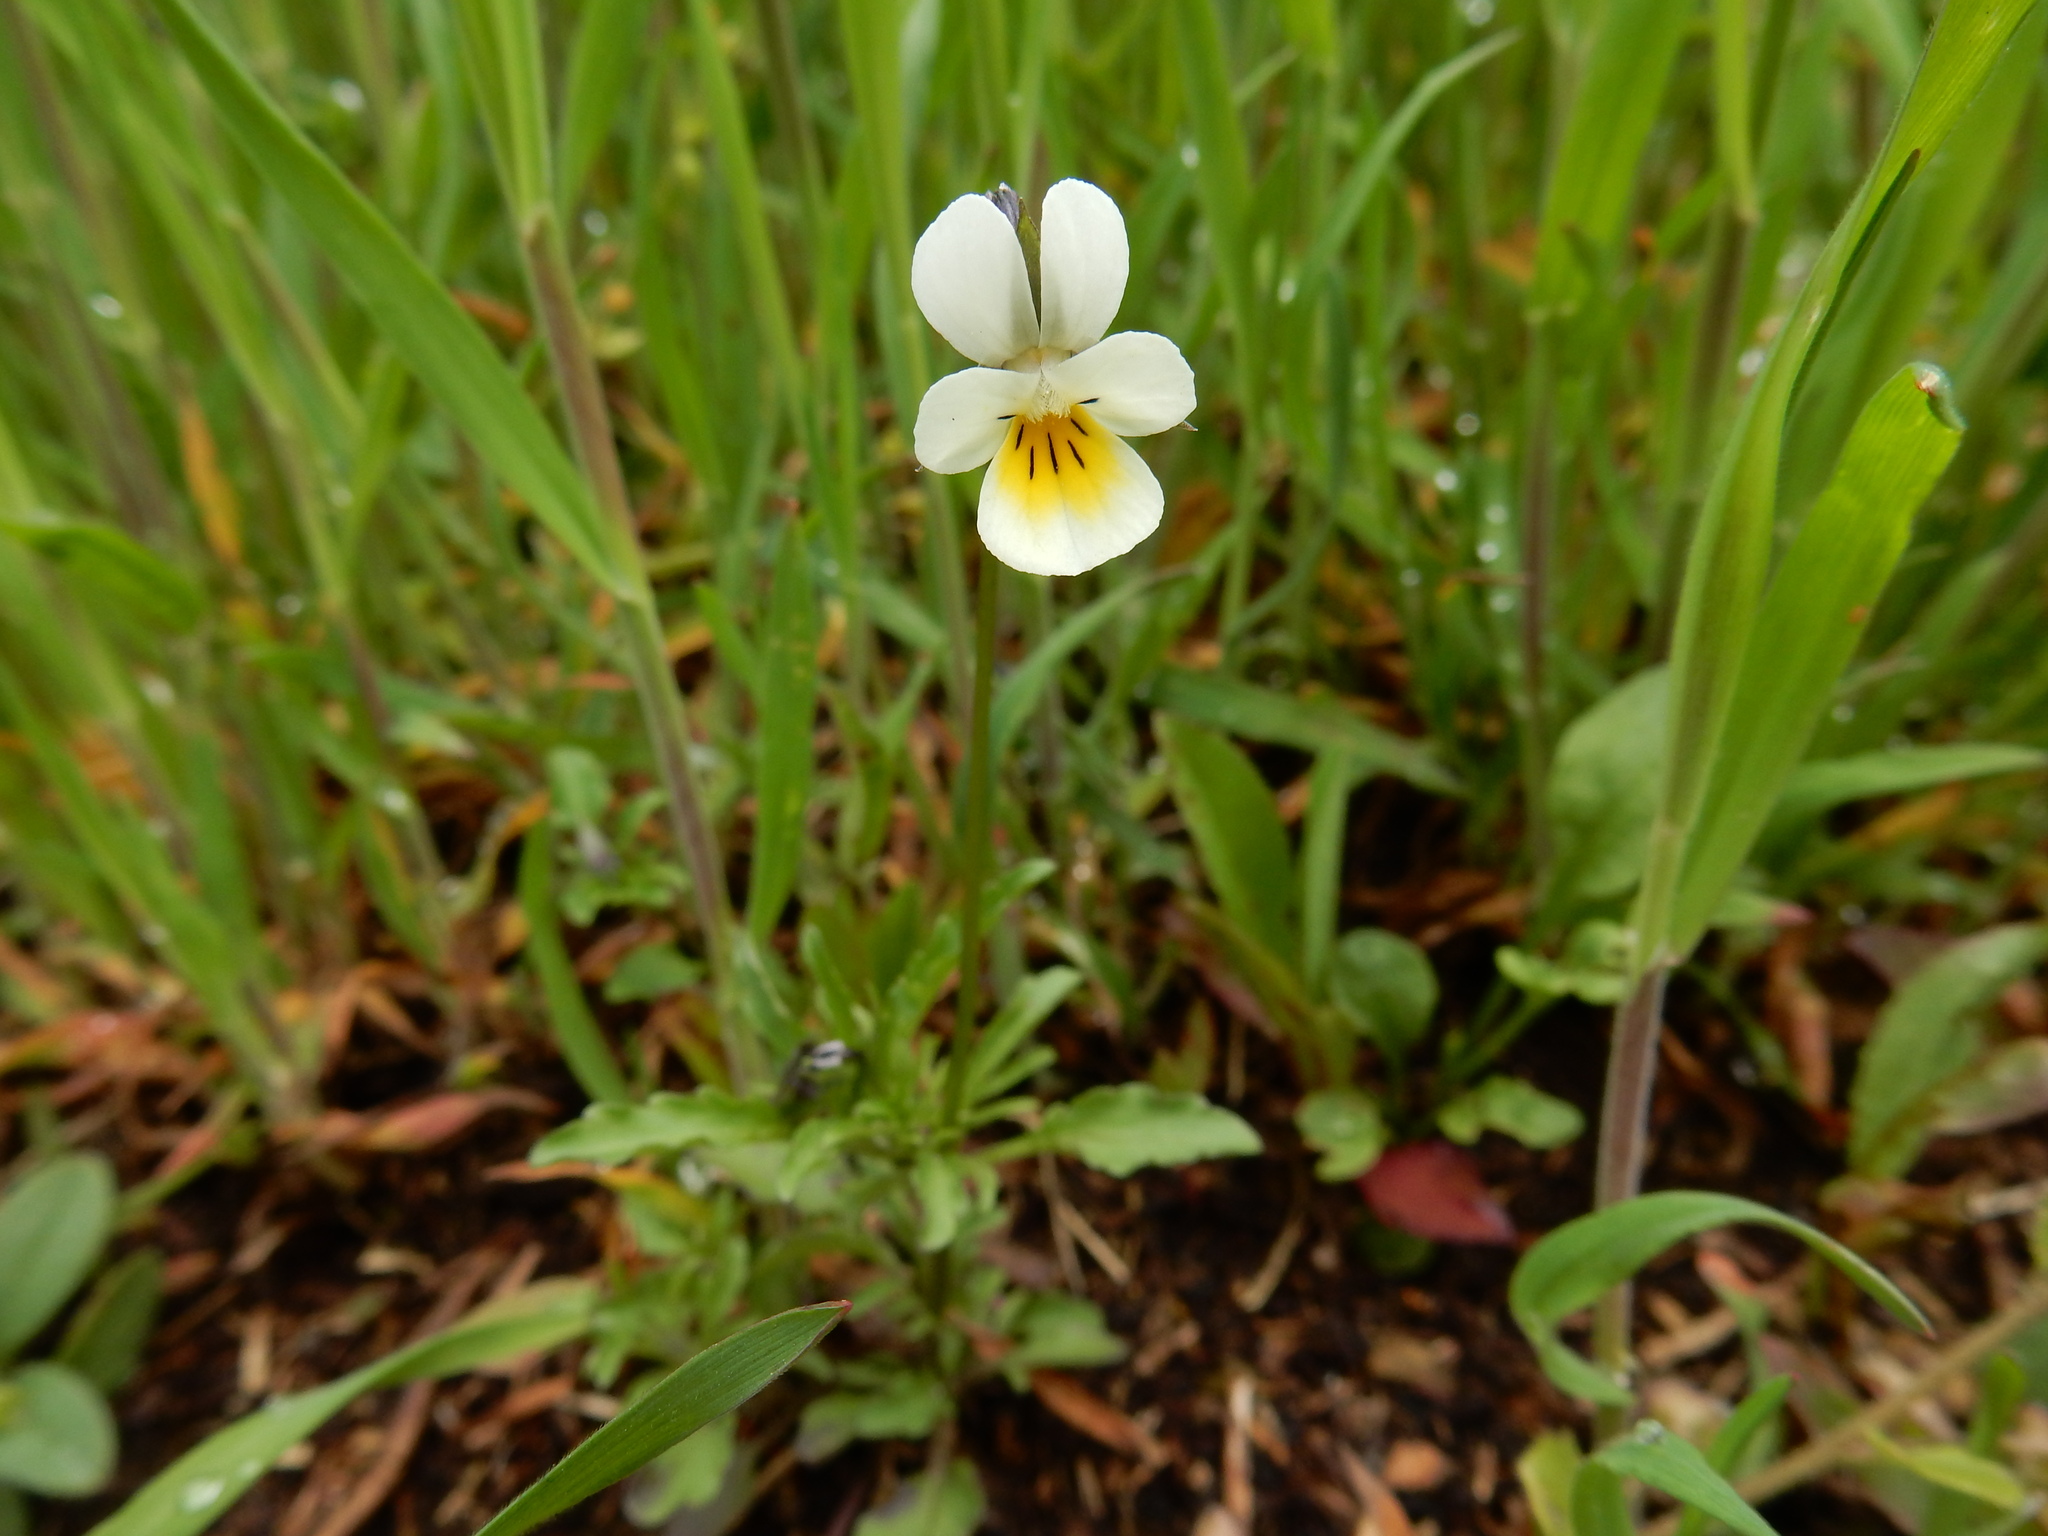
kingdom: Plantae
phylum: Tracheophyta
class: Magnoliopsida
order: Malpighiales
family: Violaceae
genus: Viola
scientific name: Viola arvensis
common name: Field pansy
